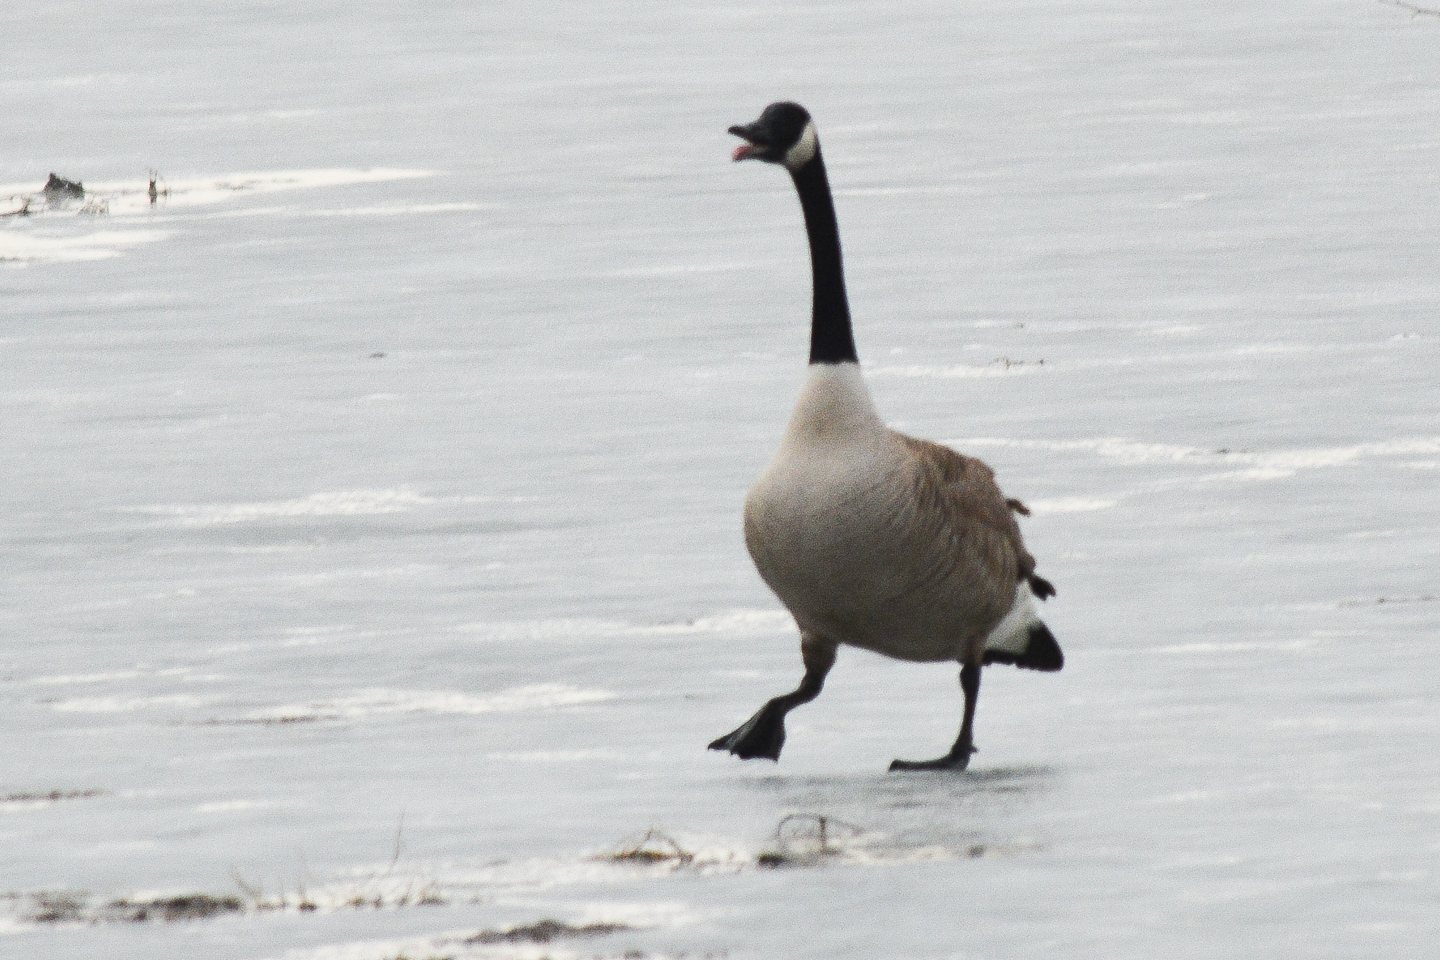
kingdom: Animalia
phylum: Chordata
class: Aves
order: Anseriformes
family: Anatidae
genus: Branta
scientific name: Branta canadensis
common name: Canada goose
